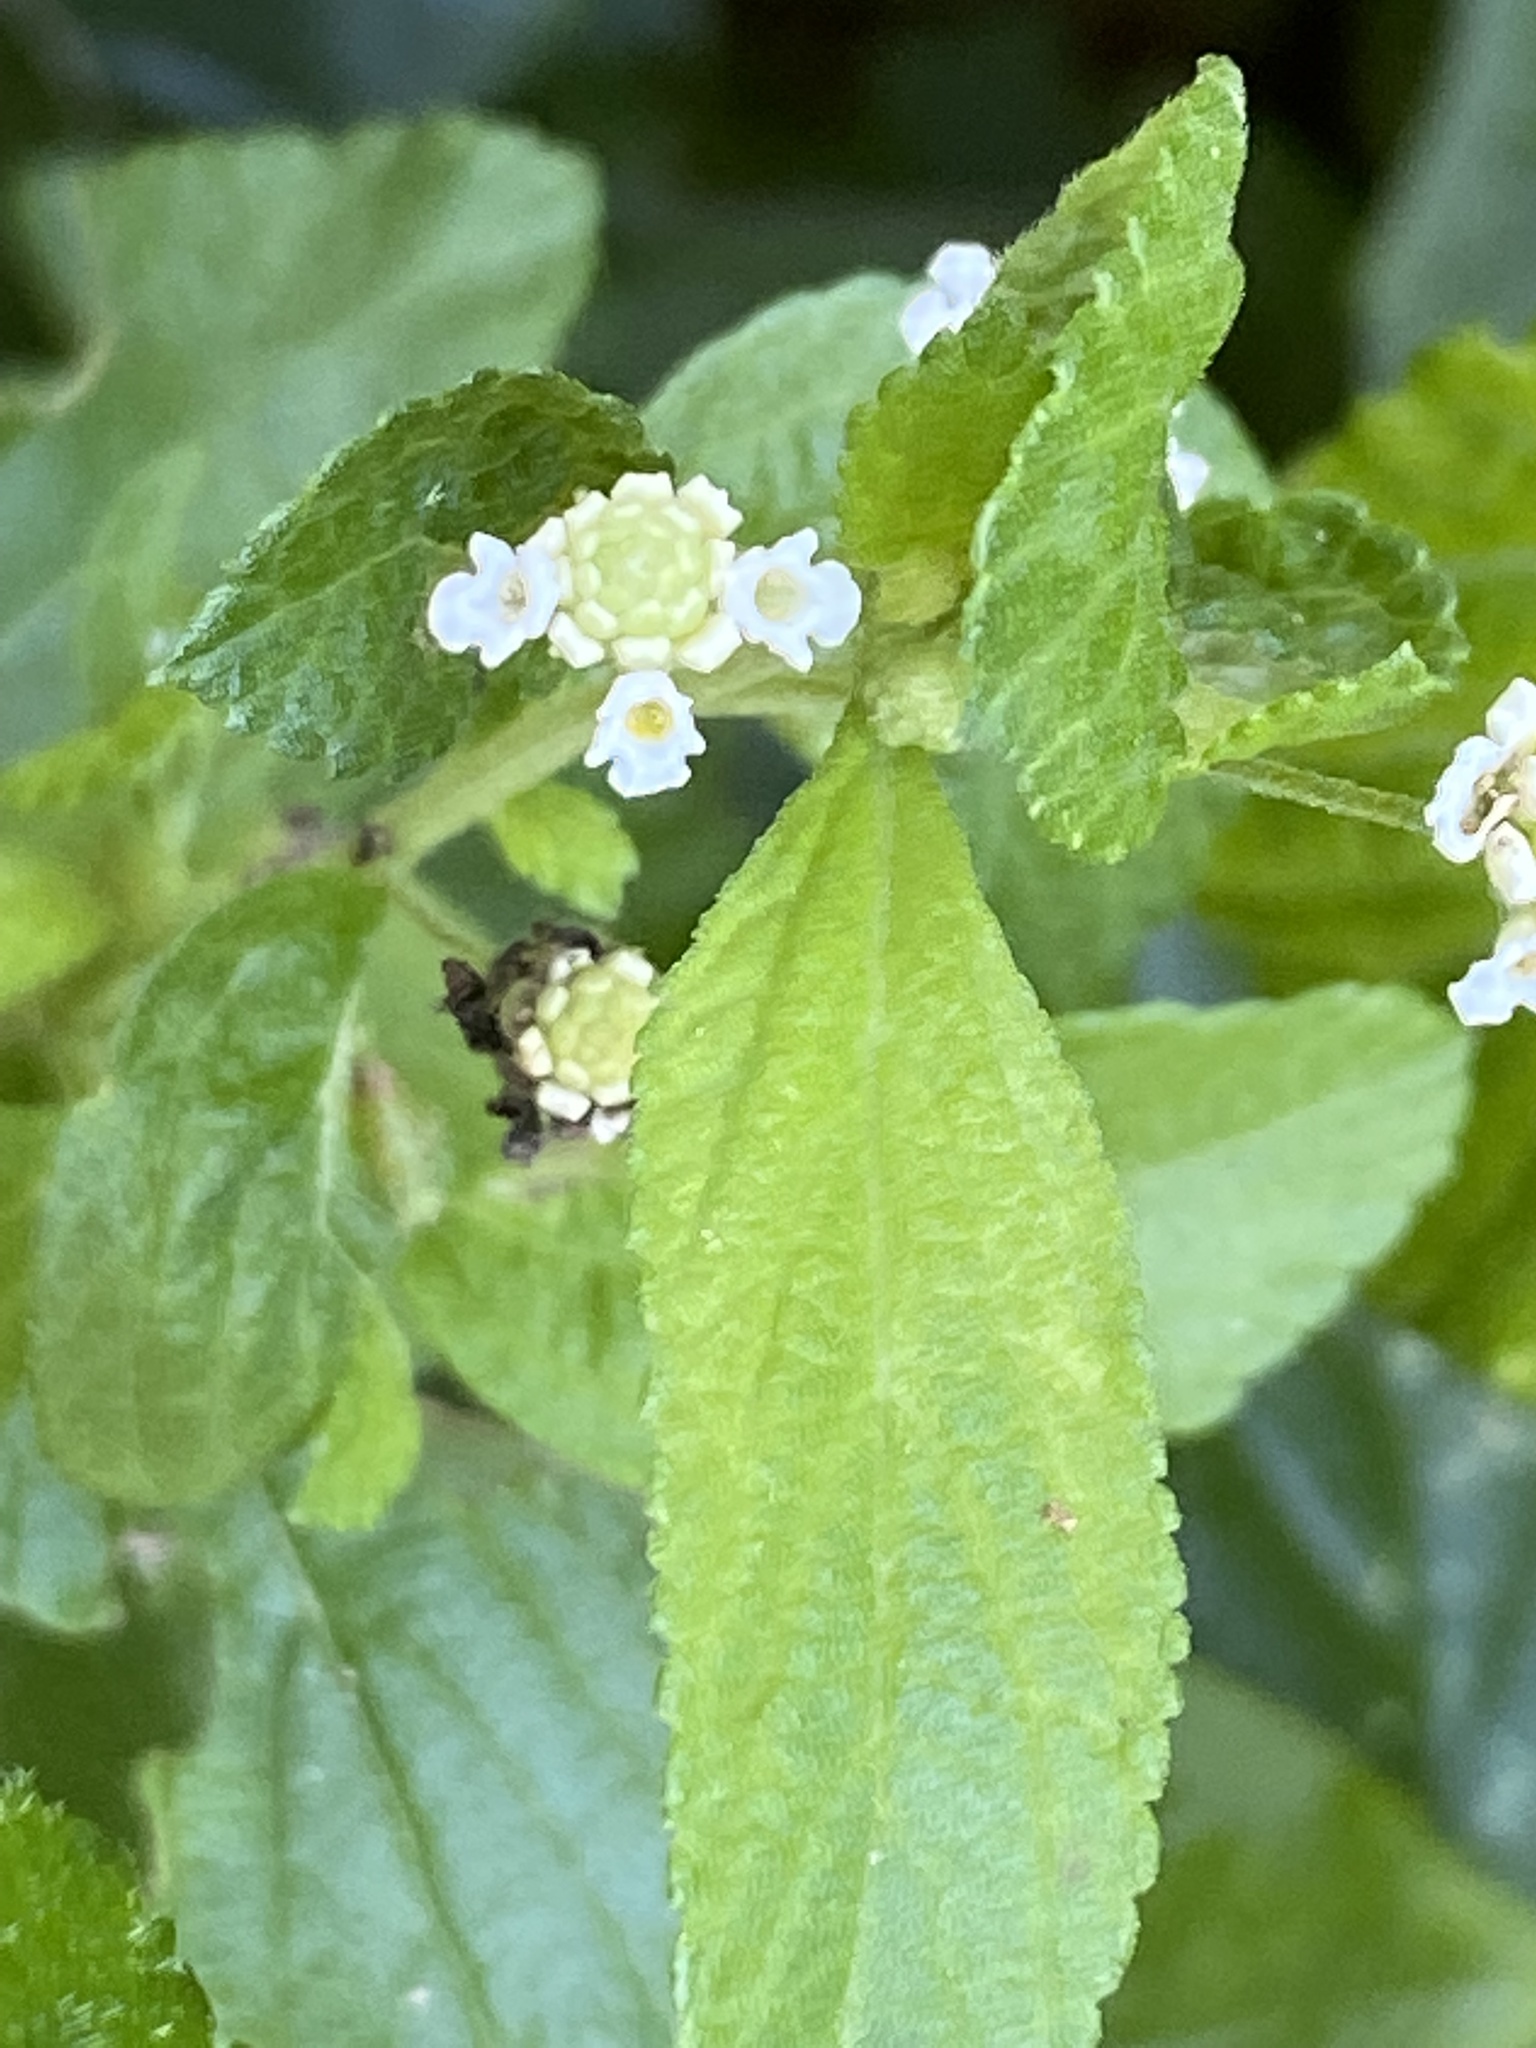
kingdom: Plantae
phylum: Tracheophyta
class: Magnoliopsida
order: Lamiales
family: Verbenaceae
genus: Lippia
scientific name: Lippia javanica
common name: Lemonbush
